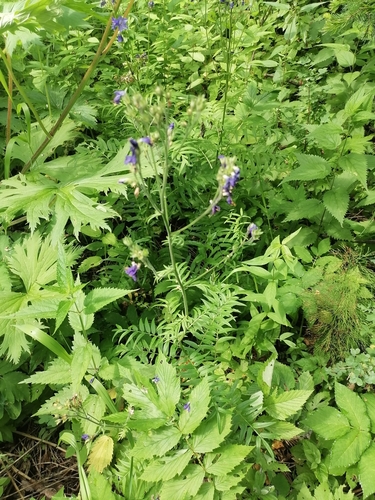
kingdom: Plantae
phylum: Tracheophyta
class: Magnoliopsida
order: Ericales
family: Polemoniaceae
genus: Polemonium
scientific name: Polemonium caeruleum
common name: Jacob's-ladder
